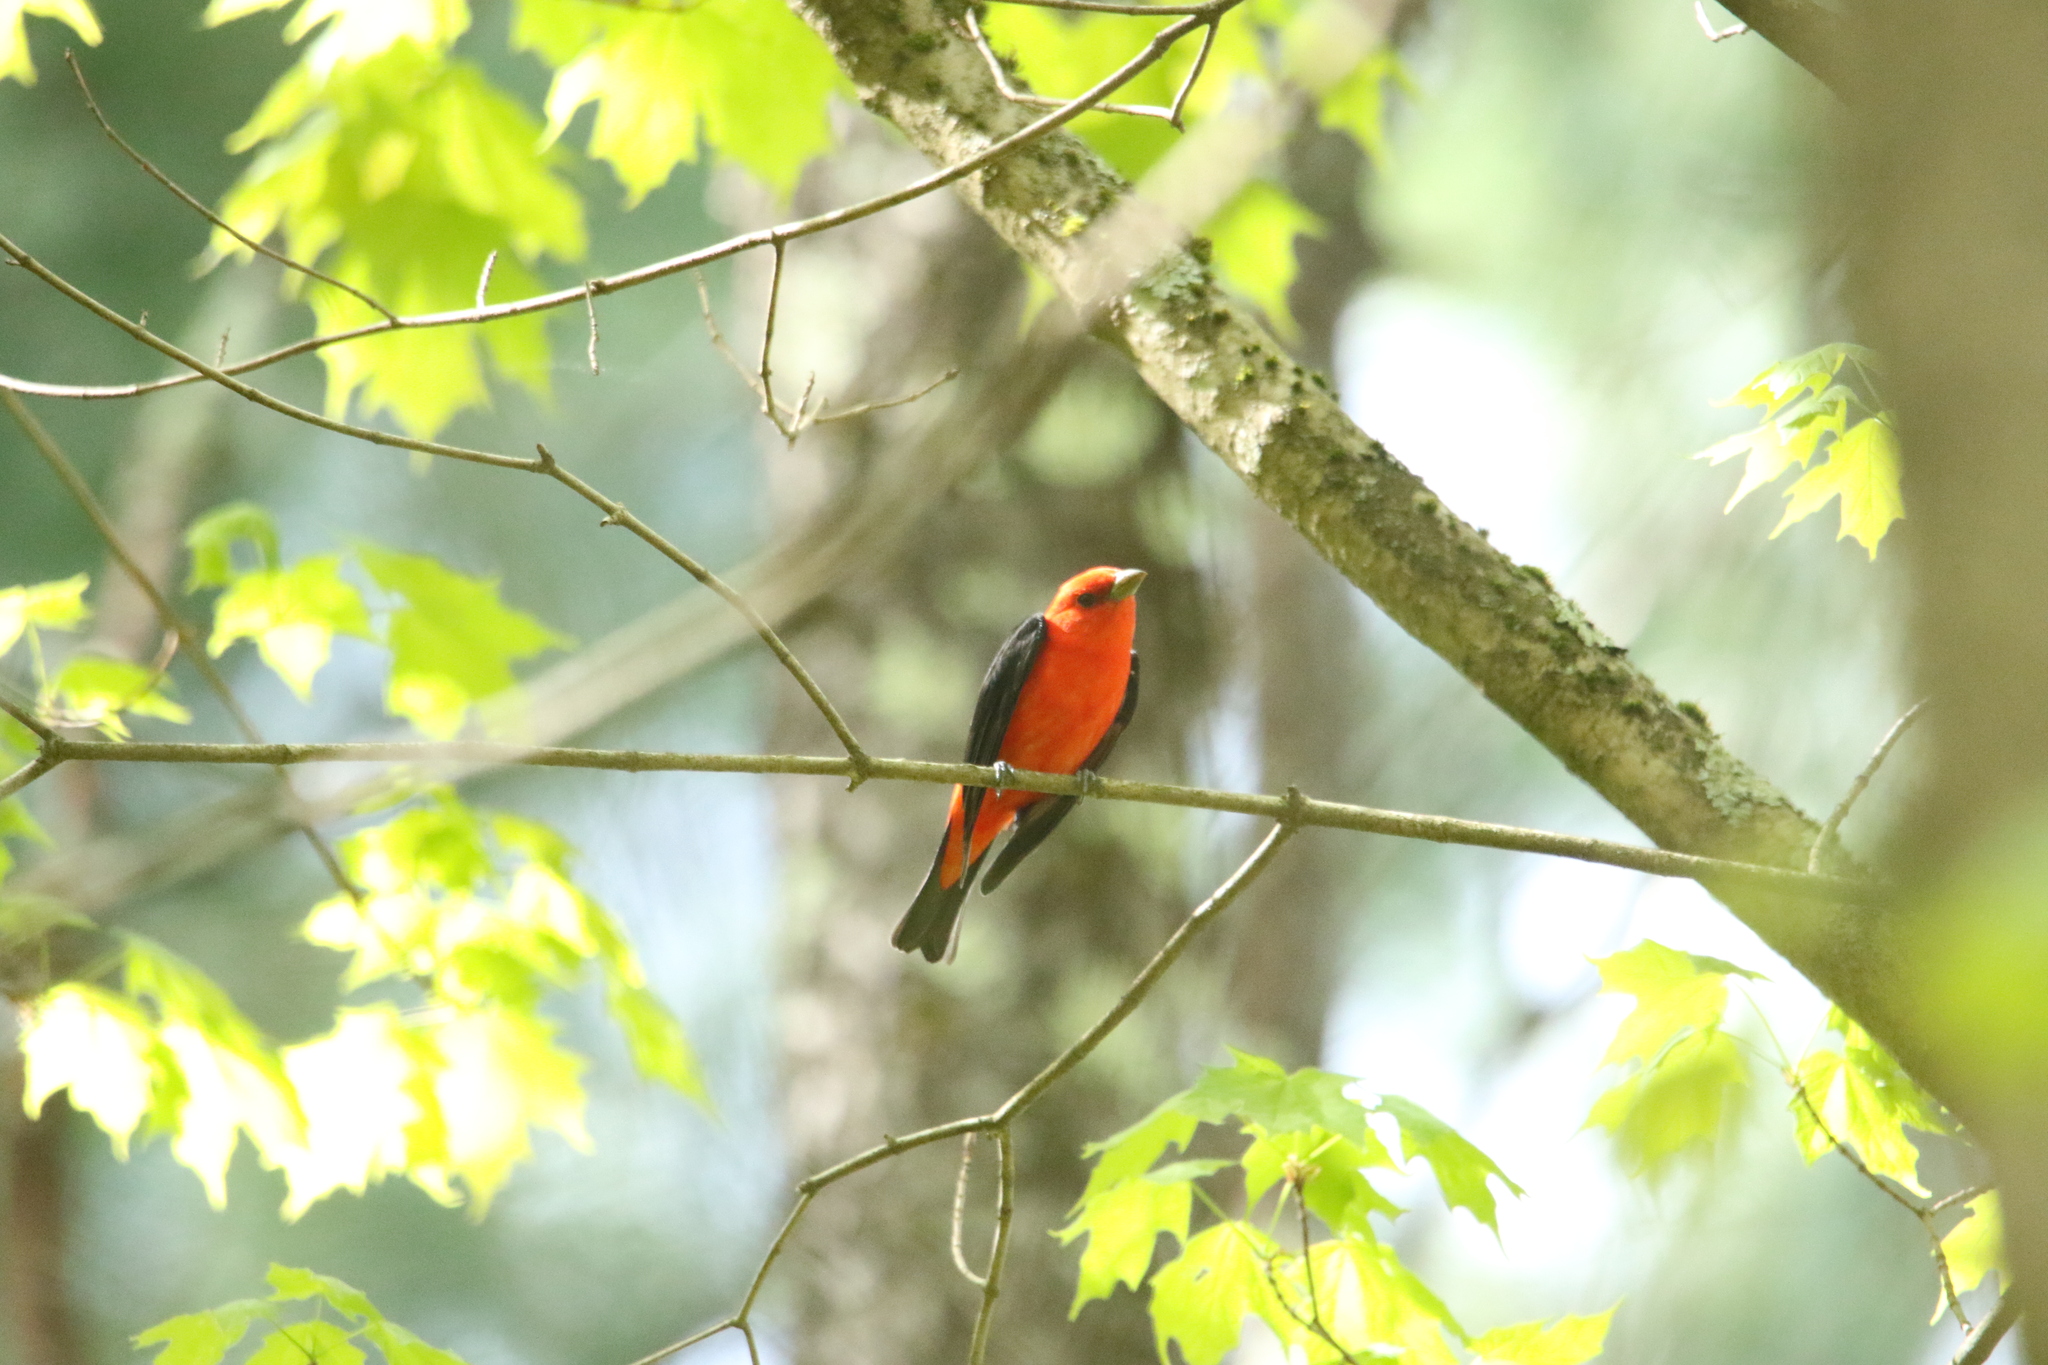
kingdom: Animalia
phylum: Chordata
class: Aves
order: Passeriformes
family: Cardinalidae
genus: Piranga
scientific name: Piranga olivacea
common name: Scarlet tanager
